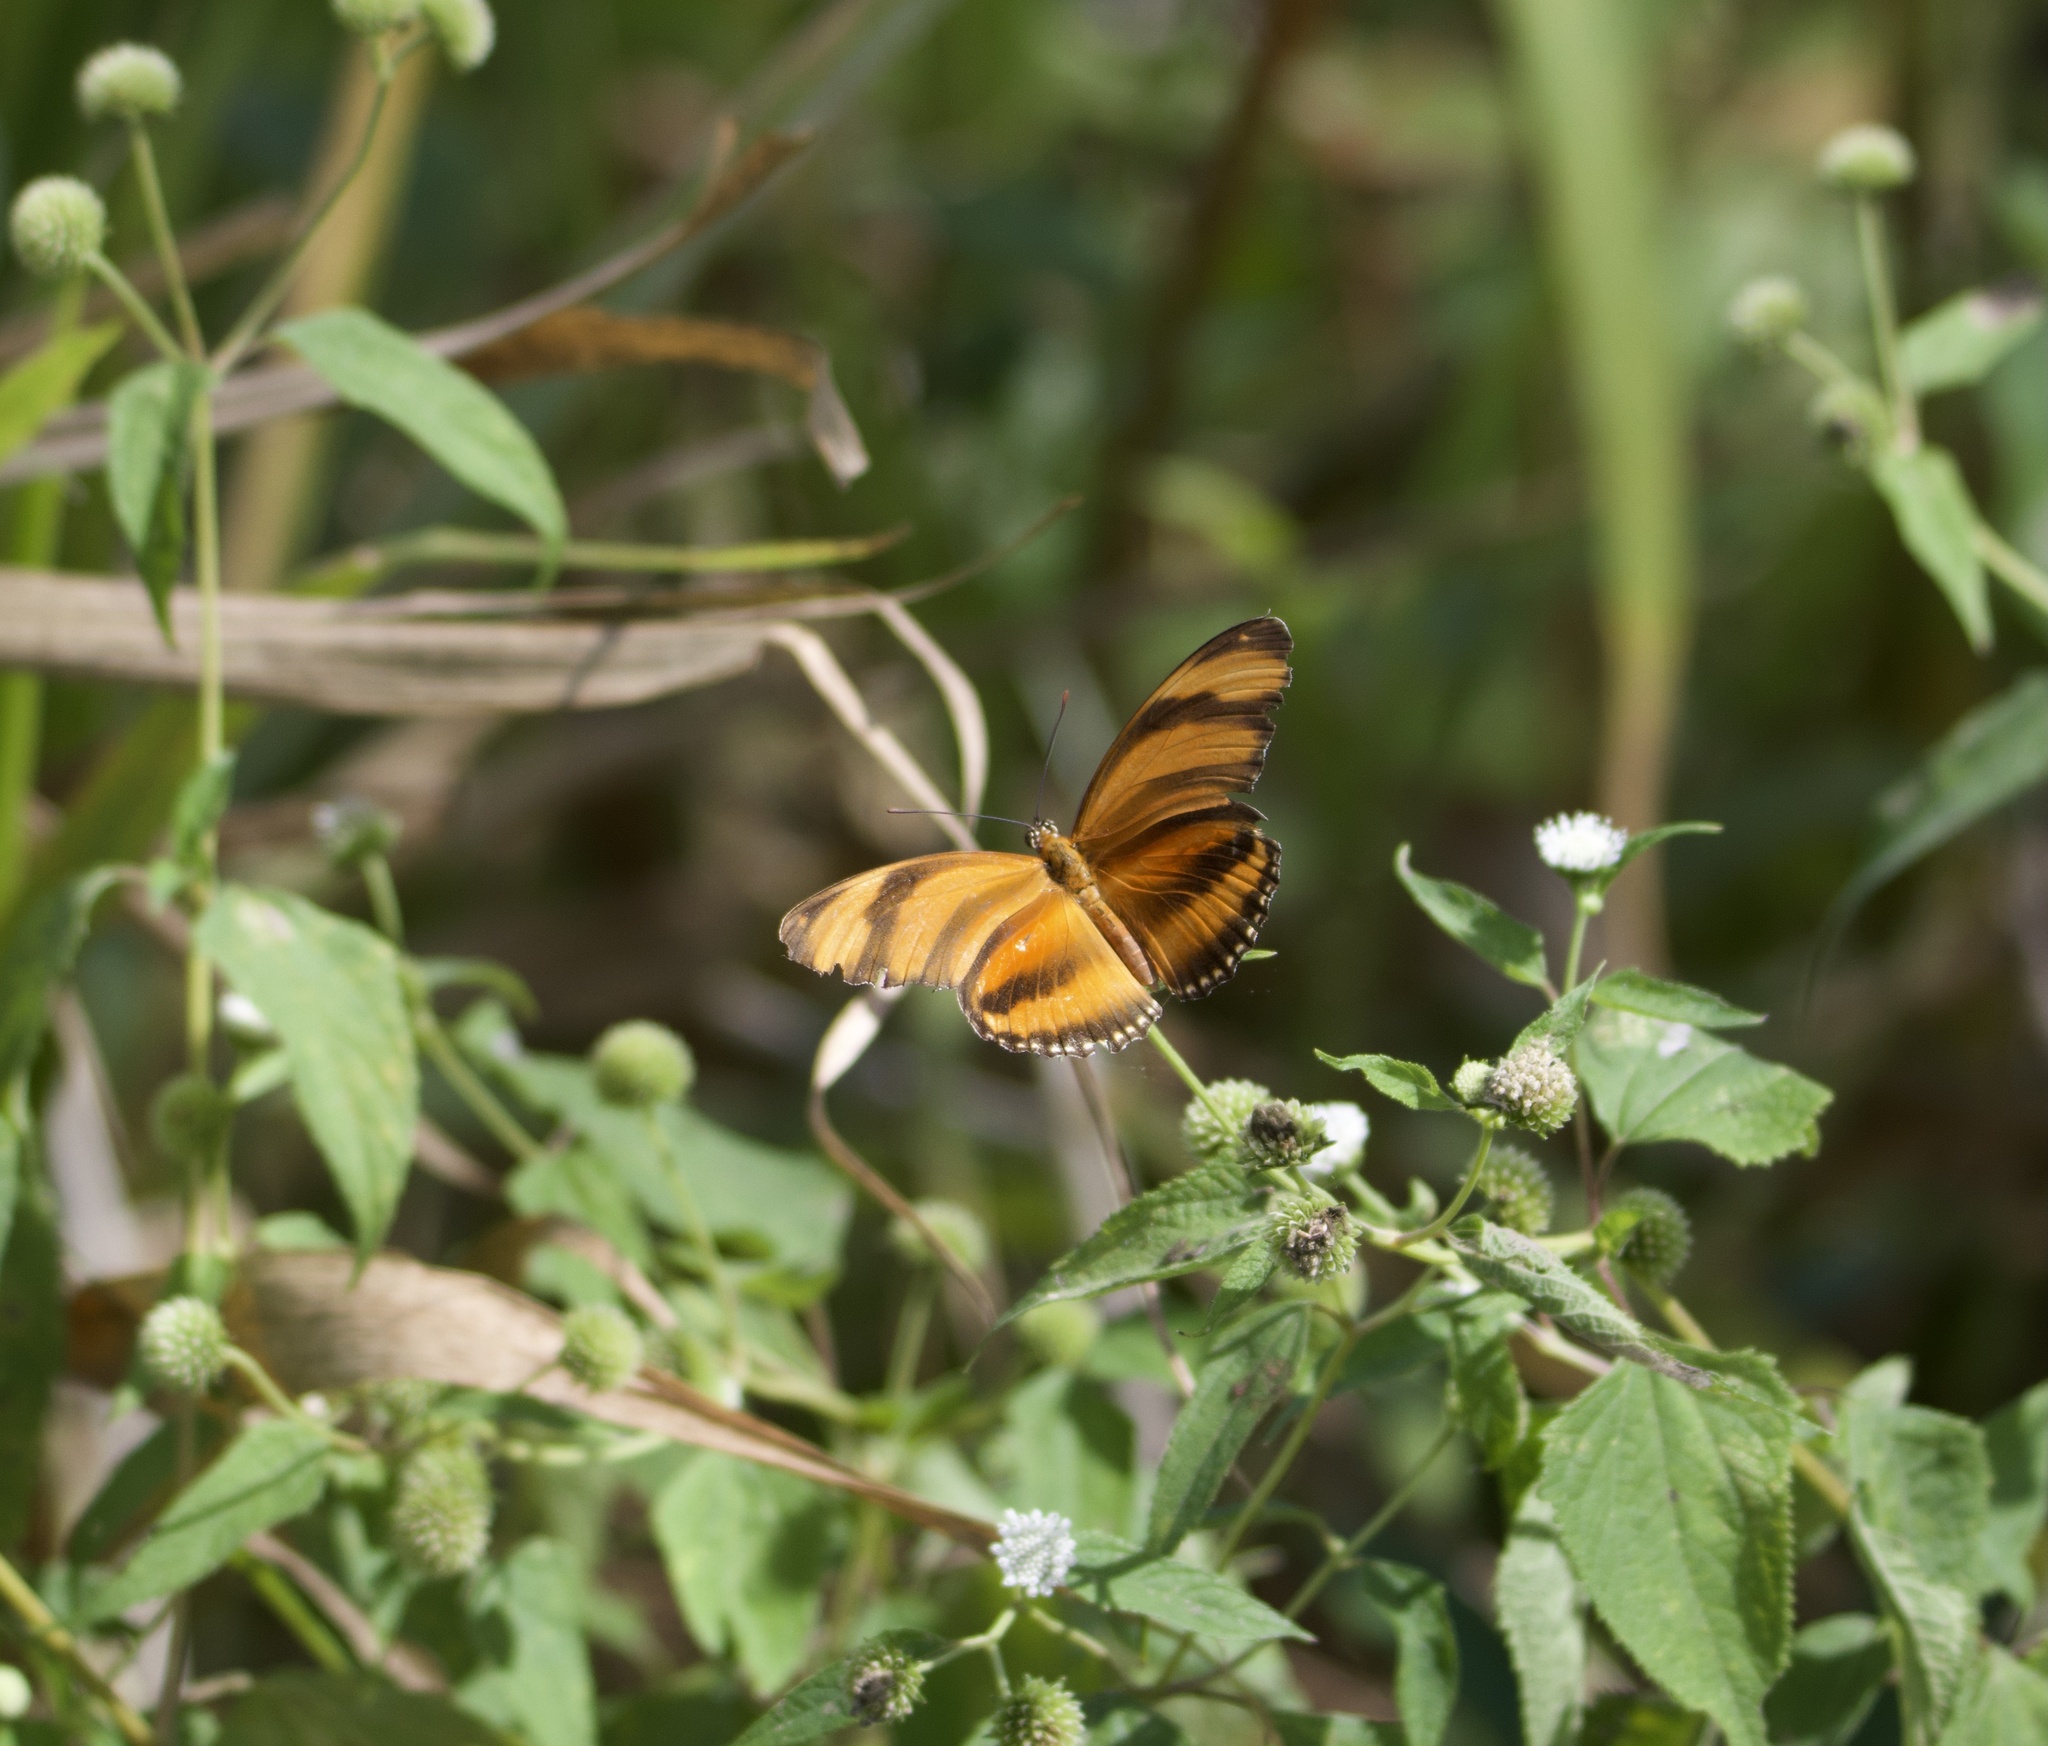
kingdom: Animalia
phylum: Arthropoda
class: Insecta
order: Lepidoptera
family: Nymphalidae
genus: Dryadula
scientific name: Dryadula phaetusa
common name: Banded orange heliconian
